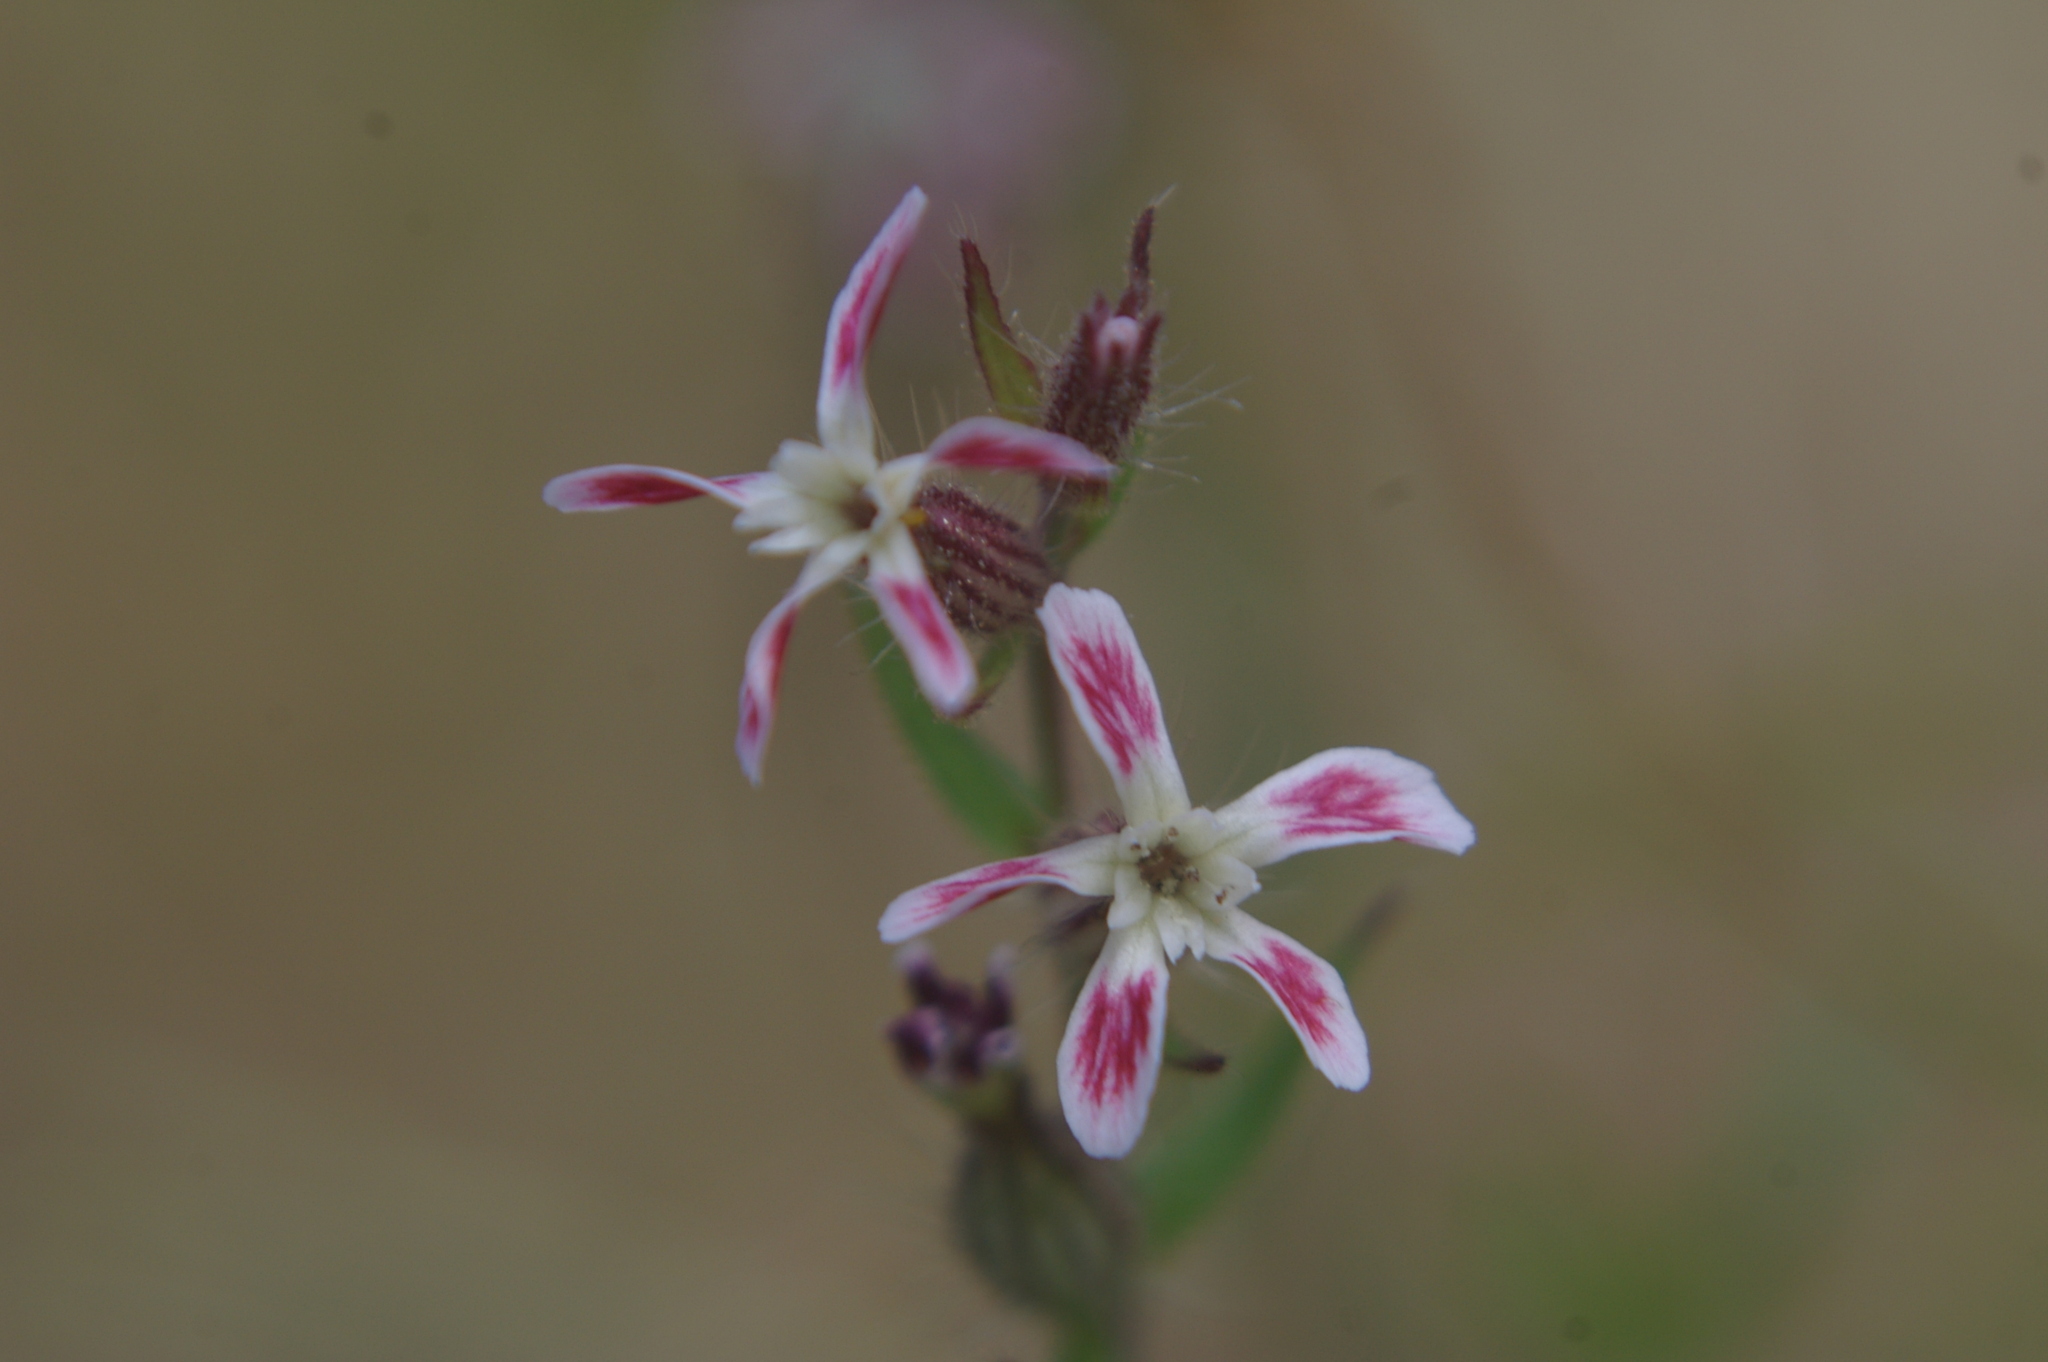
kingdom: Plantae
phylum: Tracheophyta
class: Magnoliopsida
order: Caryophyllales
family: Caryophyllaceae
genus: Silene
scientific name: Silene gallica
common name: Small-flowered catchfly
